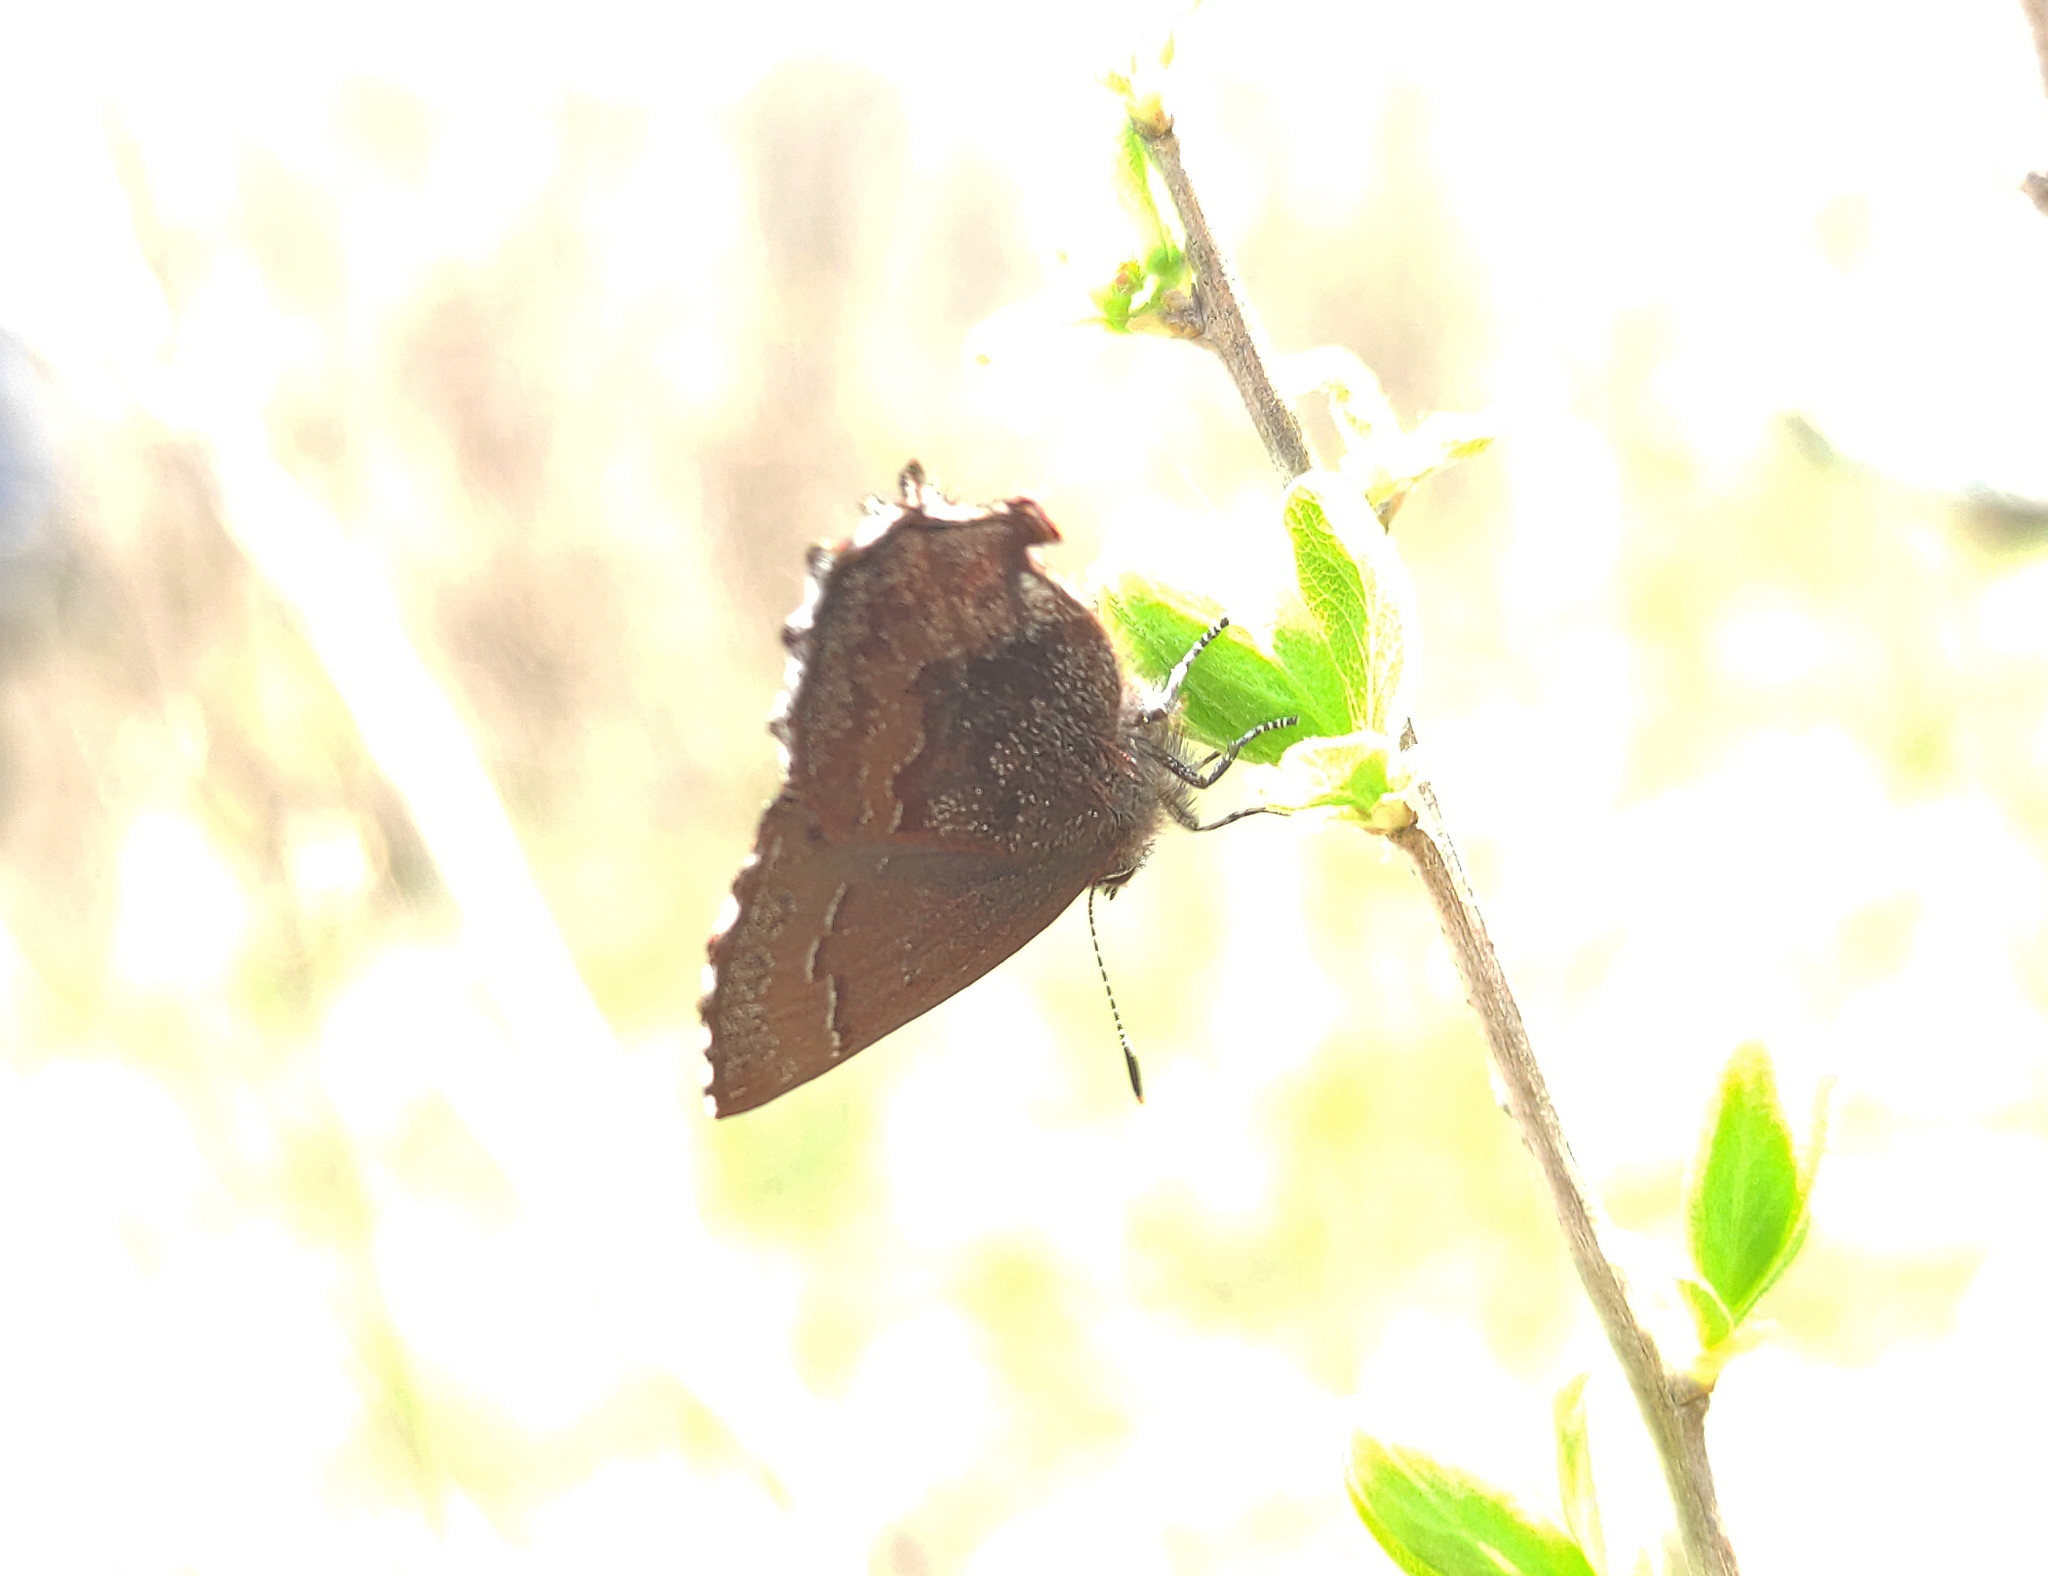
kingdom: Animalia
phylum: Arthropoda
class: Insecta
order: Lepidoptera
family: Lycaenidae
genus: Ginzia
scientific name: Ginzia Ahlbergia frivaldszkyi
